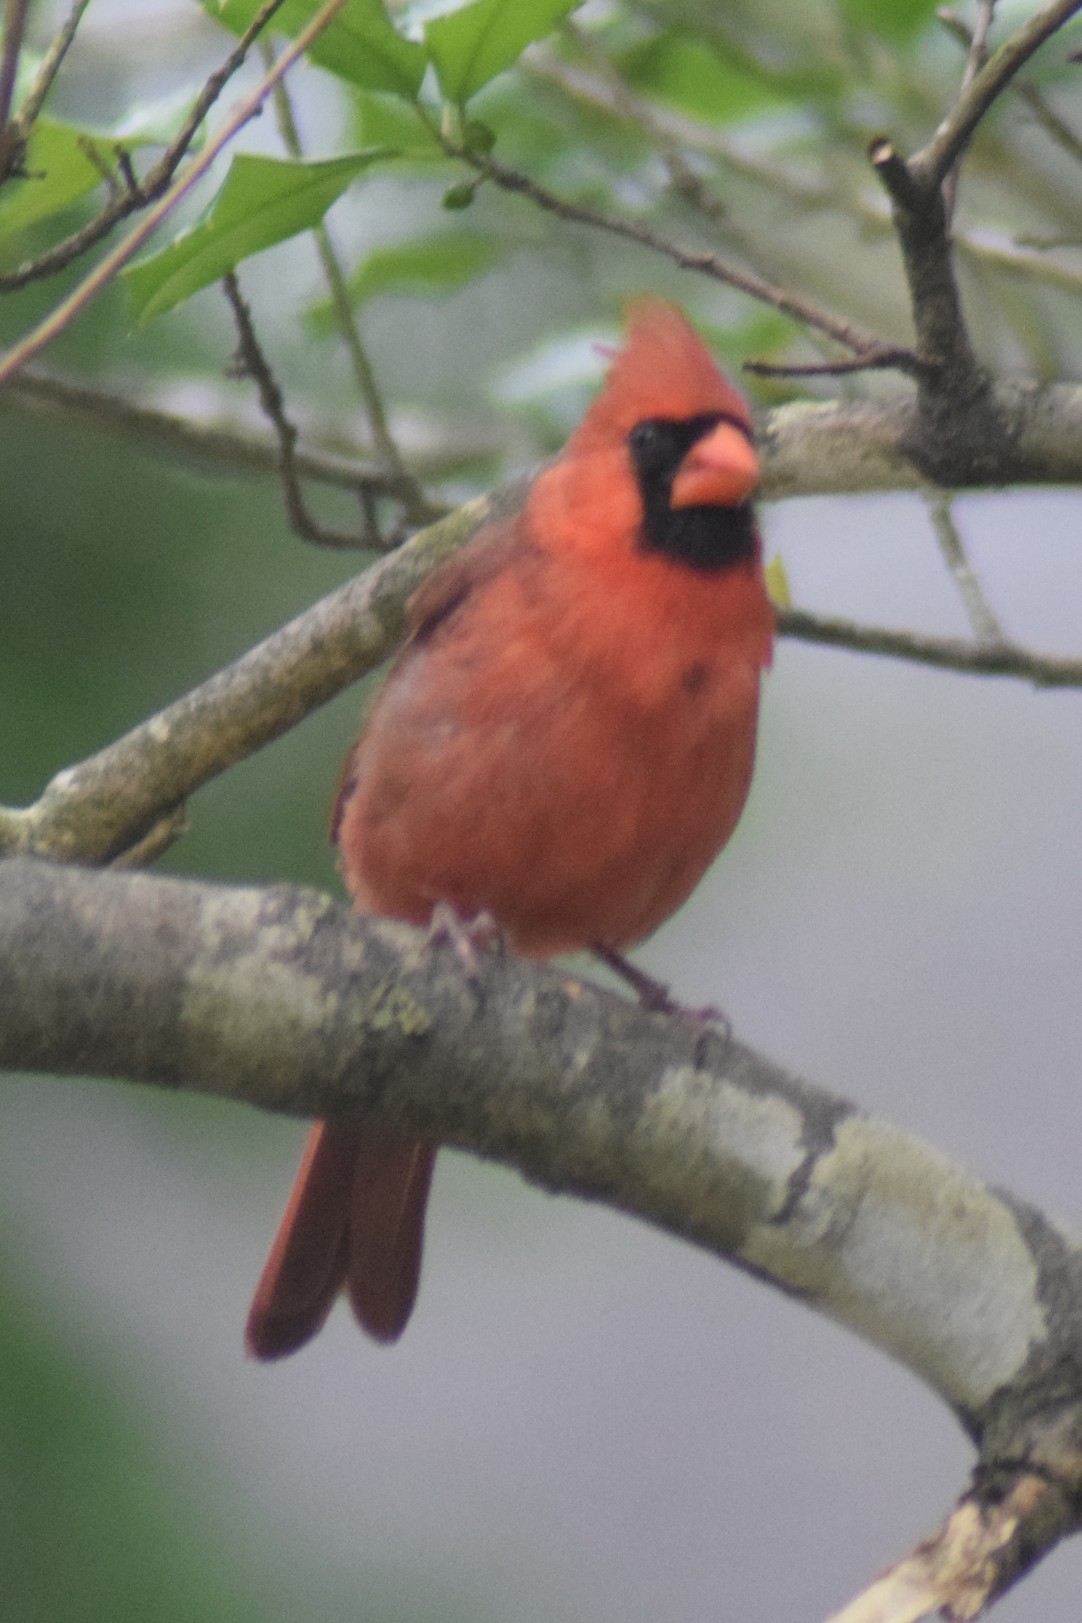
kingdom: Animalia
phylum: Chordata
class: Aves
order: Passeriformes
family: Cardinalidae
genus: Cardinalis
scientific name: Cardinalis cardinalis
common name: Northern cardinal
